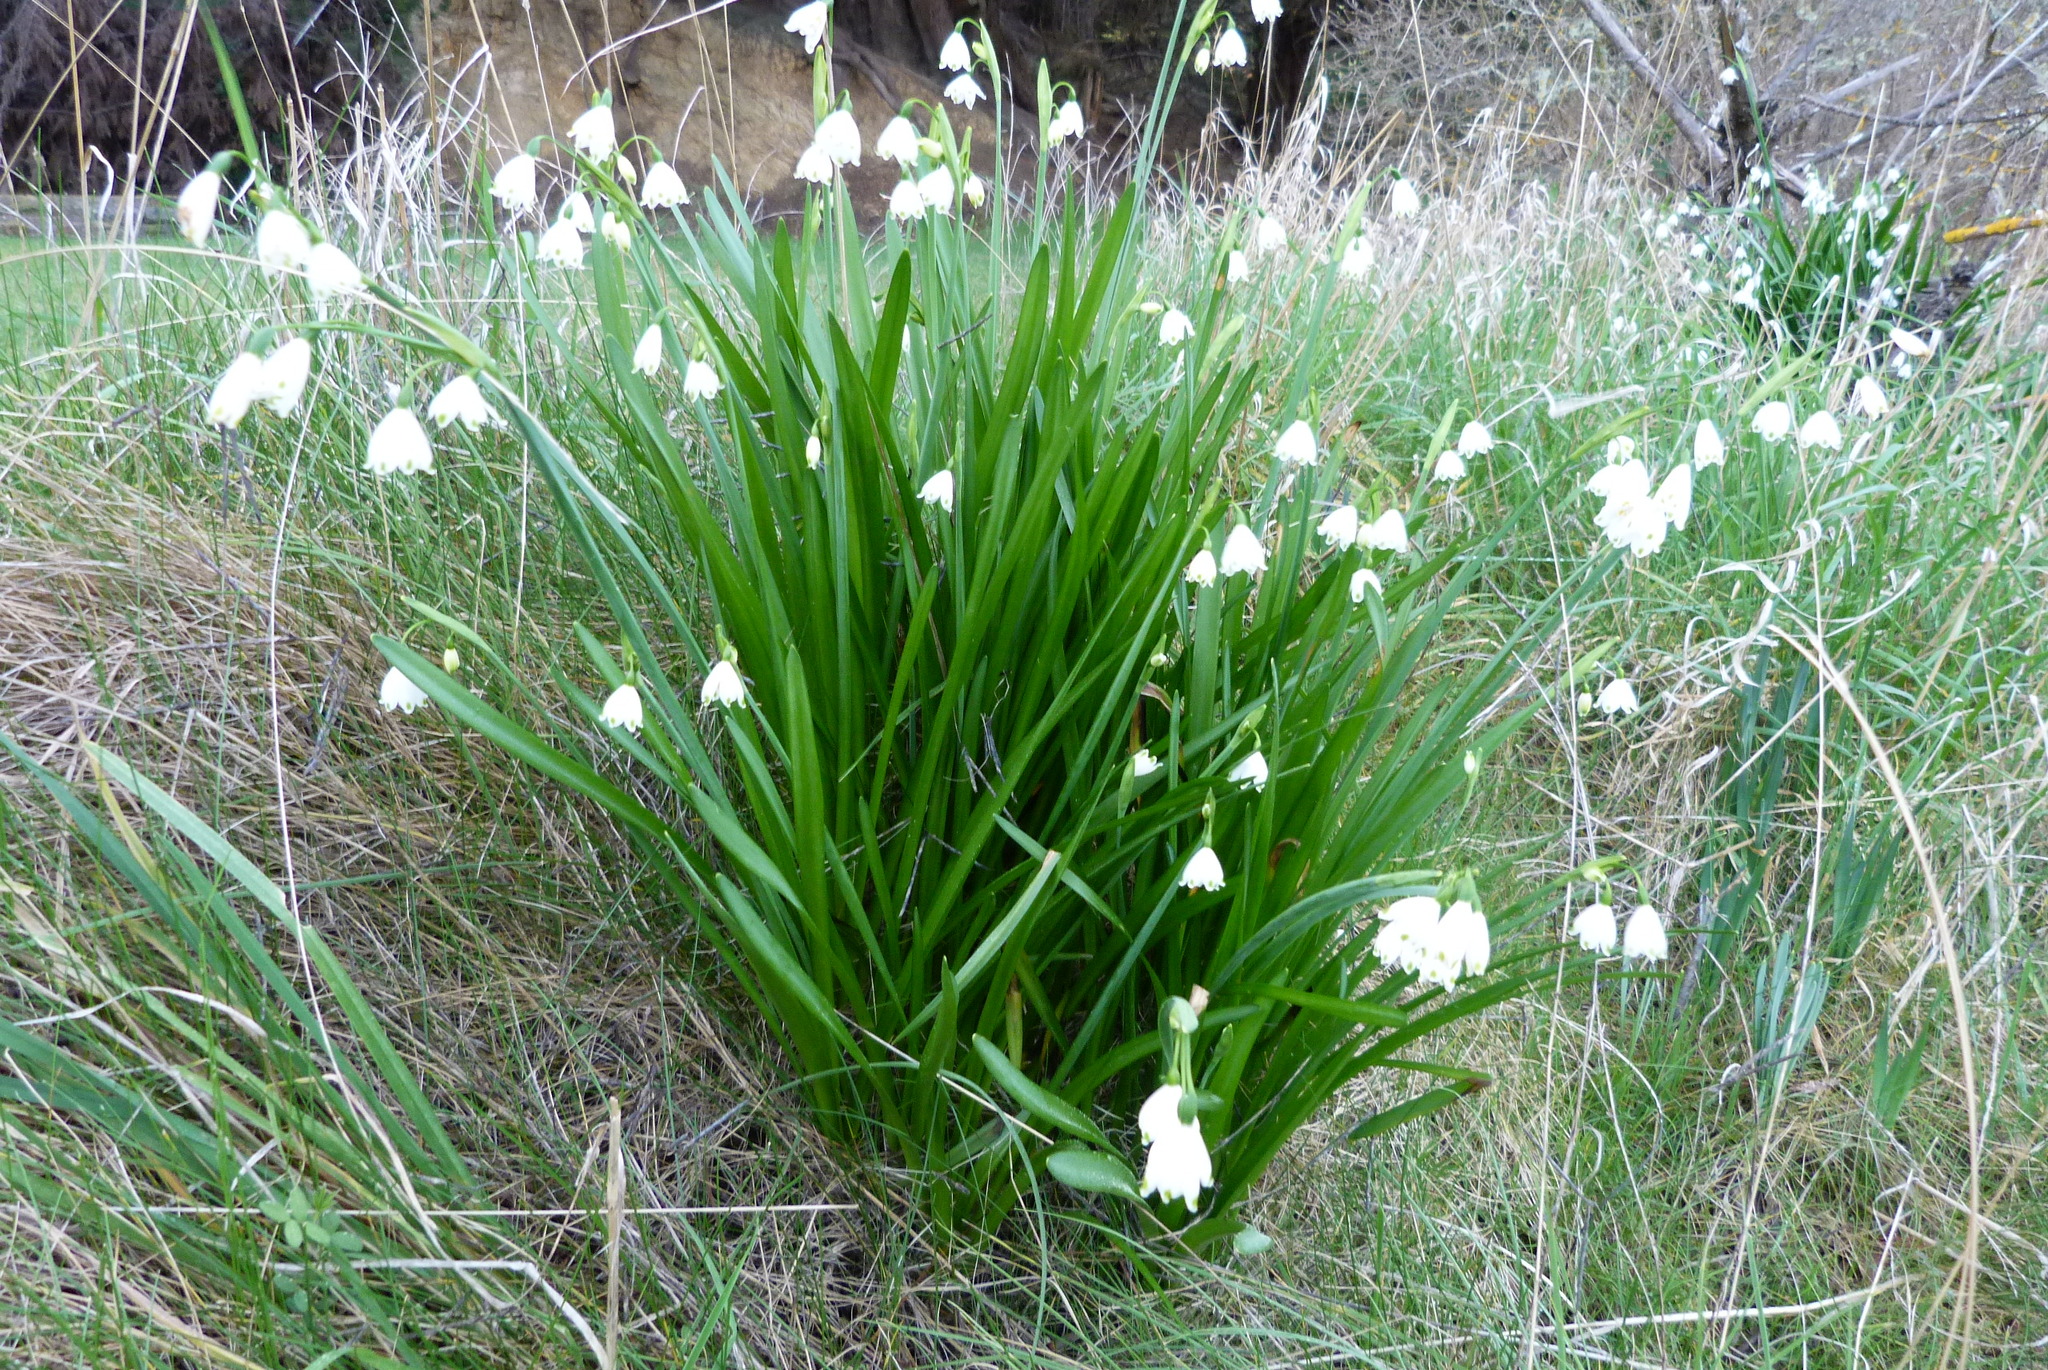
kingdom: Plantae
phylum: Tracheophyta
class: Liliopsida
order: Asparagales
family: Amaryllidaceae
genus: Leucojum
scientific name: Leucojum aestivum
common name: Summer snowflake
